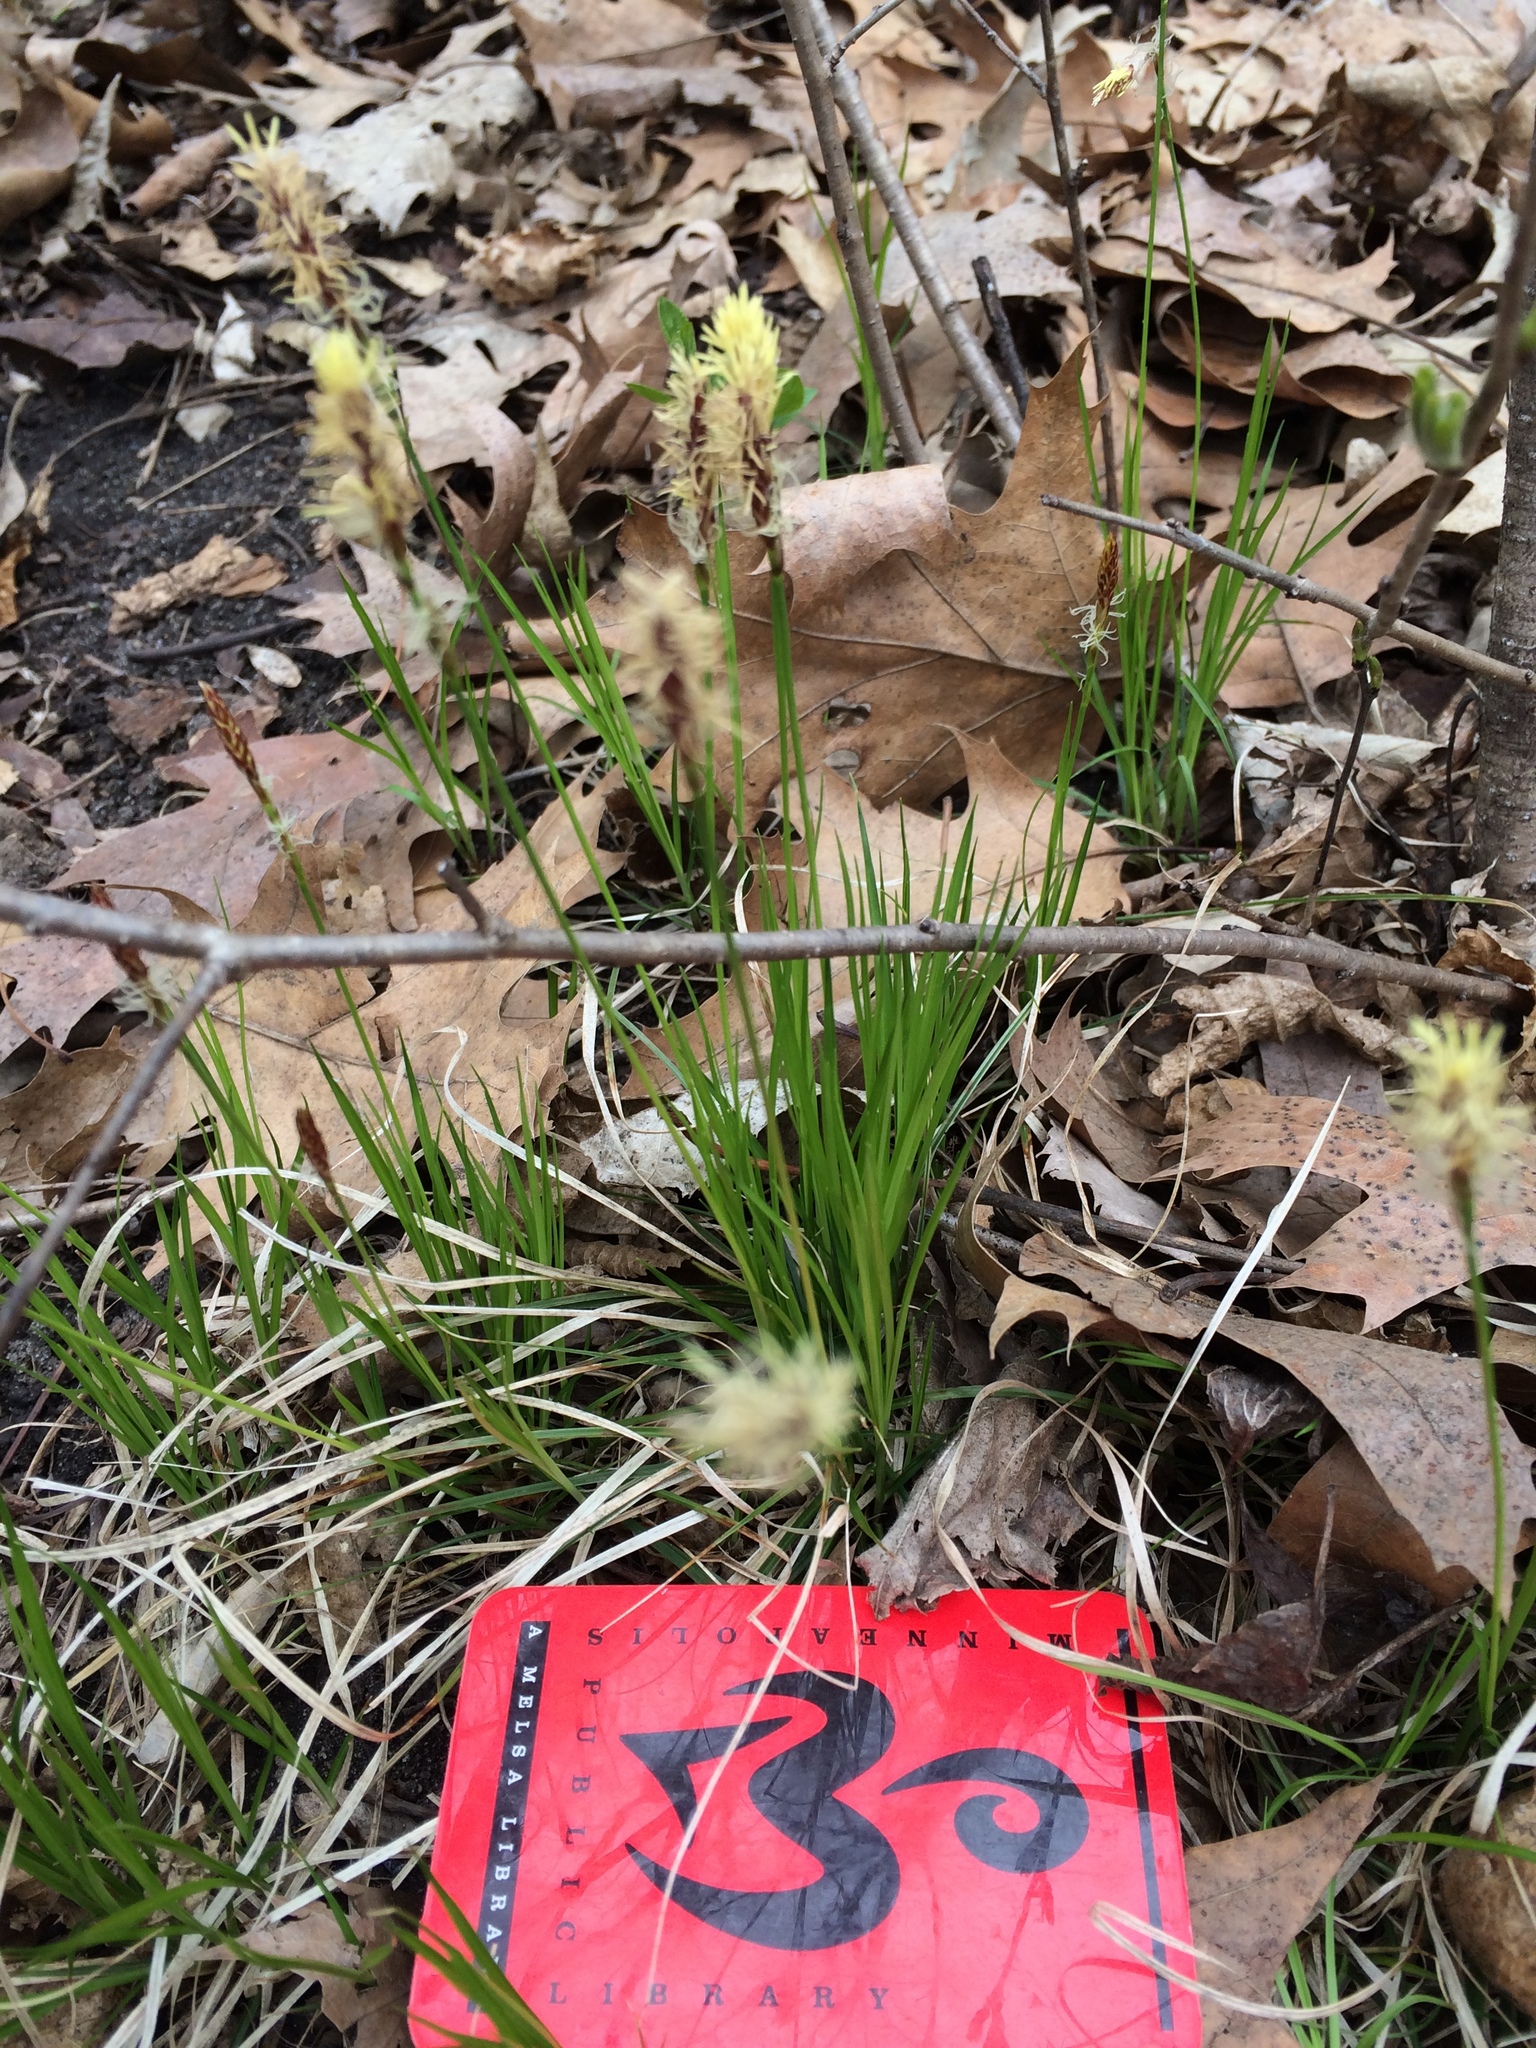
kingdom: Plantae
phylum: Tracheophyta
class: Liliopsida
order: Poales
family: Cyperaceae
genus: Carex
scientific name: Carex pensylvanica
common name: Common oak sedge
